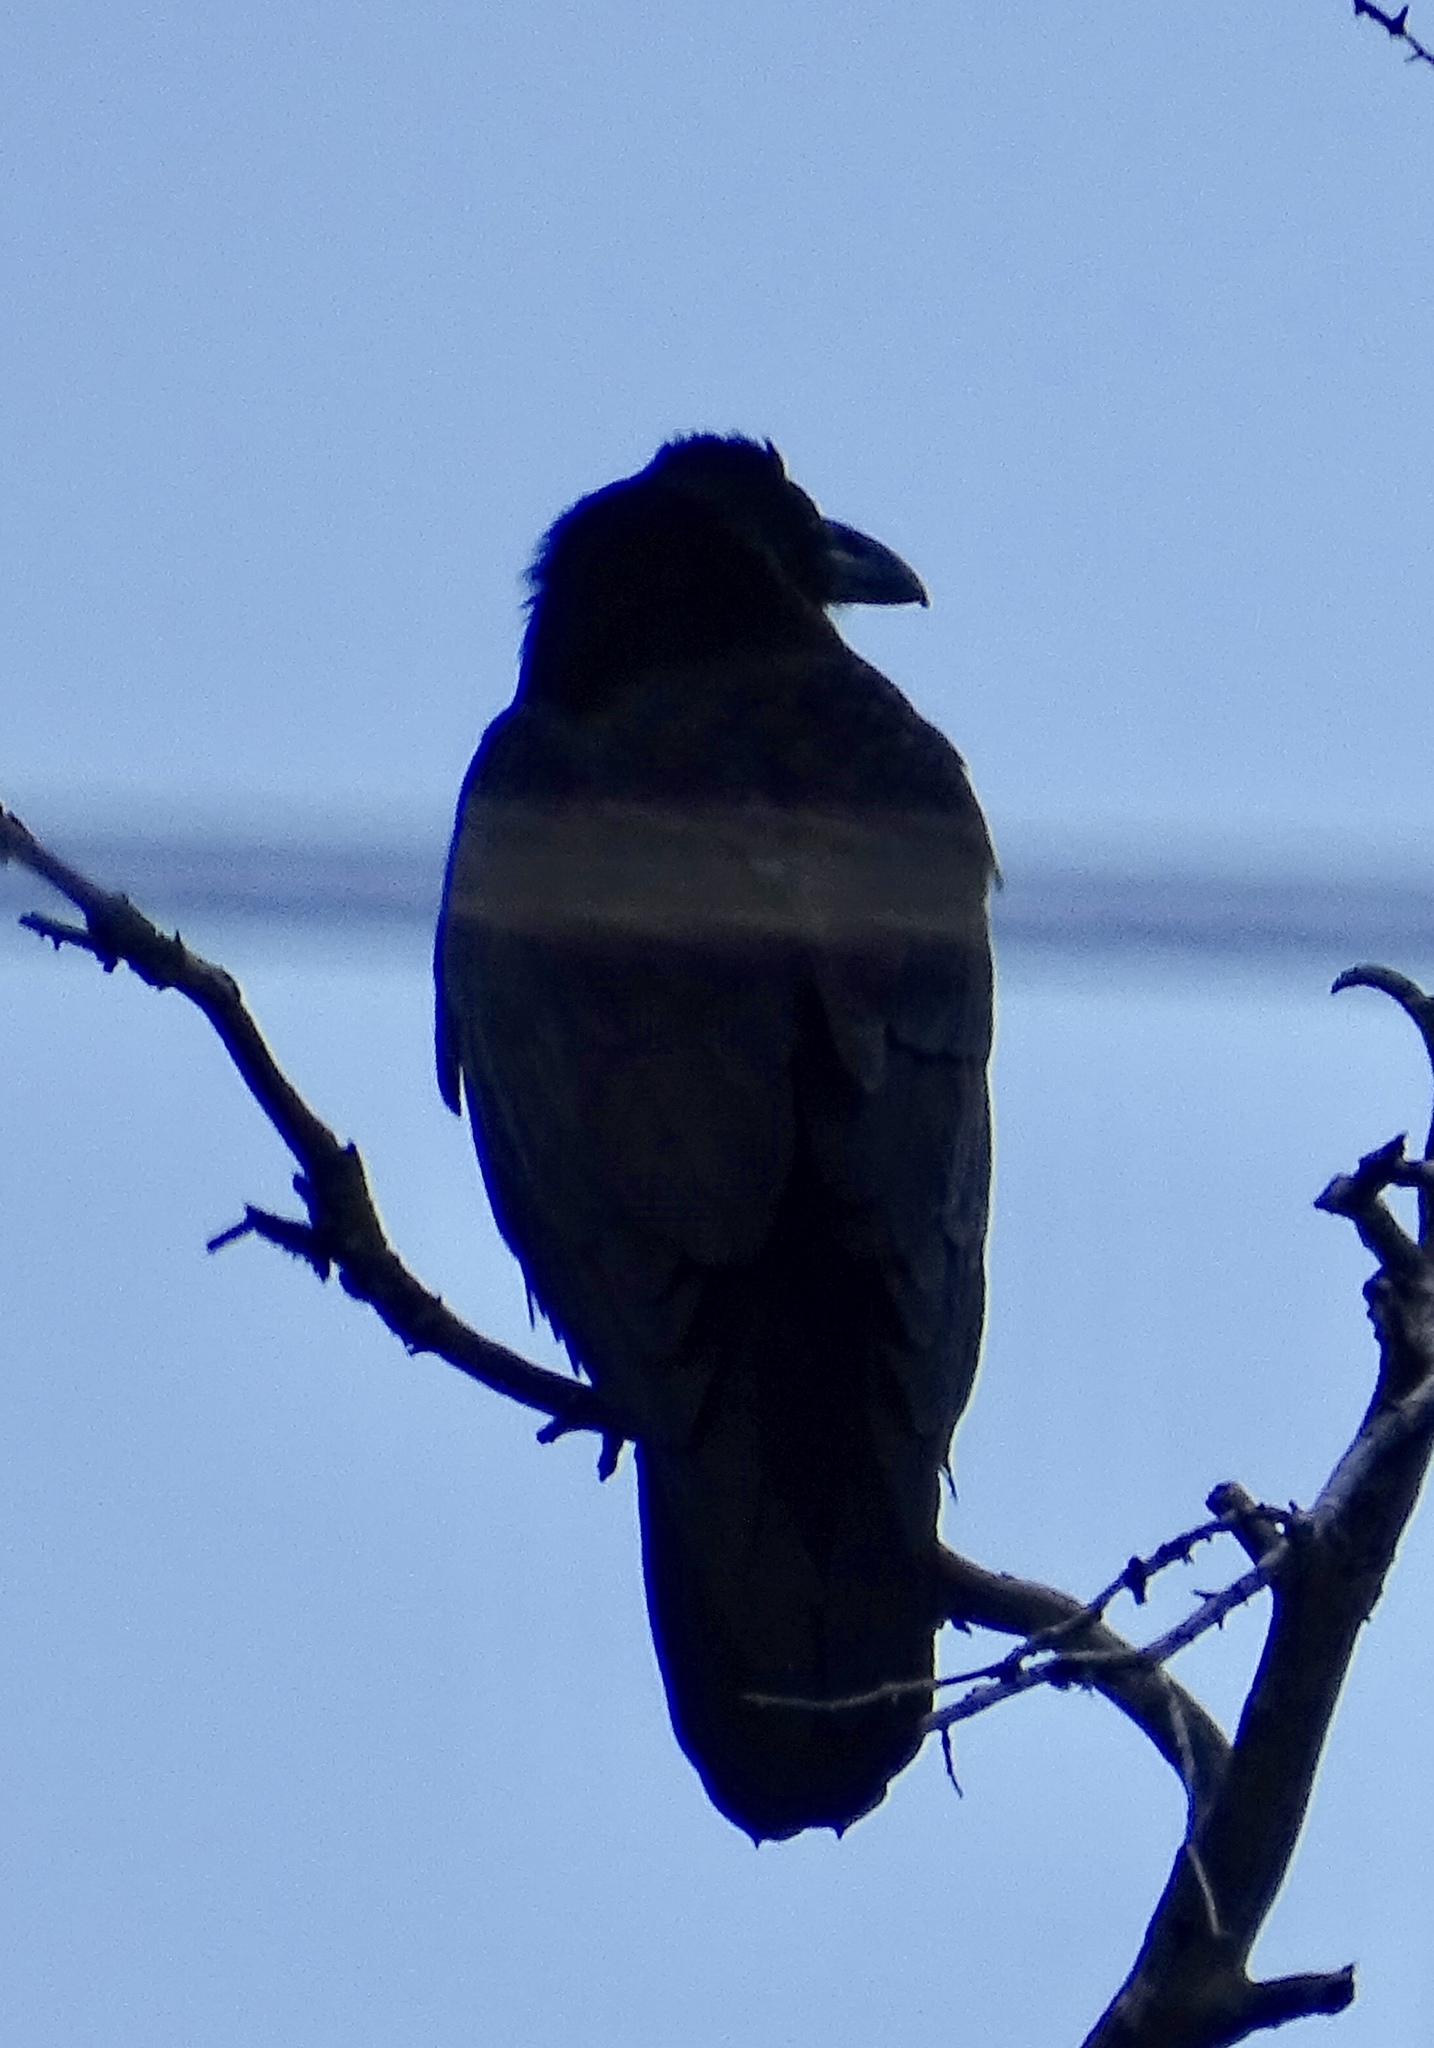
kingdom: Animalia
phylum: Chordata
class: Aves
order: Passeriformes
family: Corvidae
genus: Corvus
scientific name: Corvus corax
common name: Common raven
